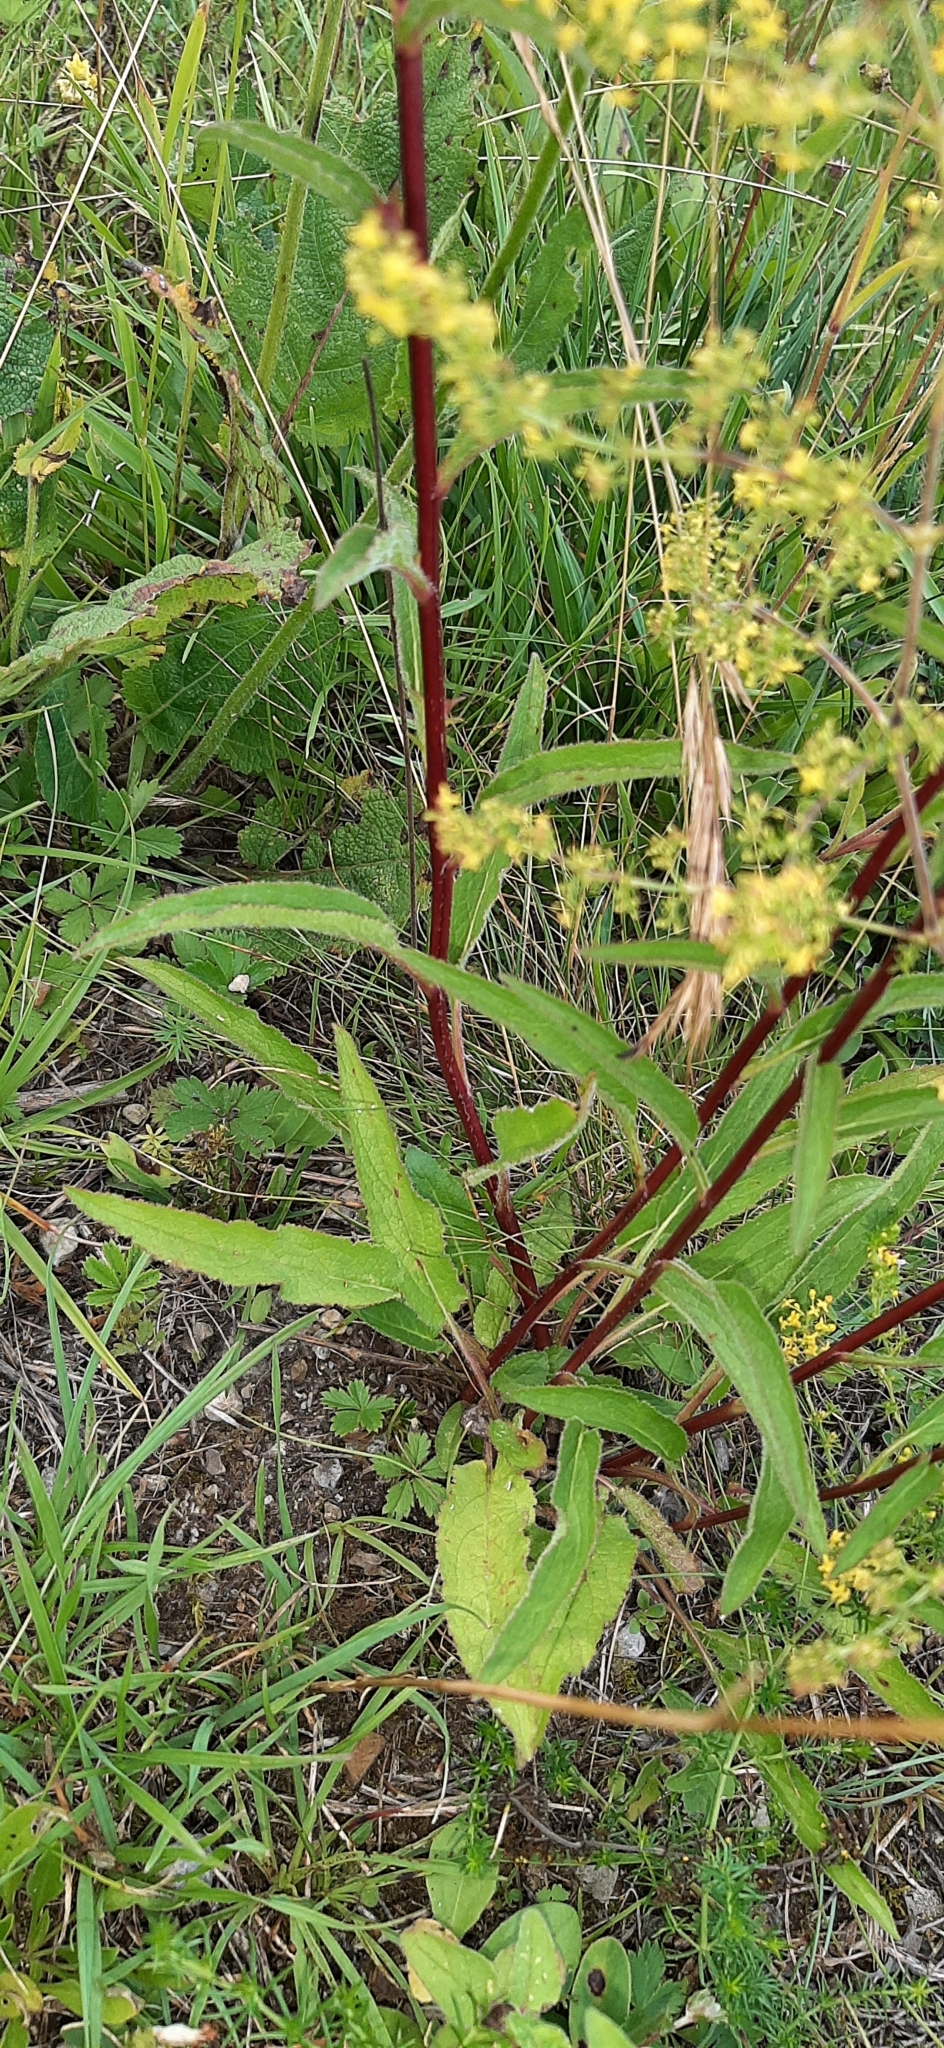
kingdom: Plantae
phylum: Tracheophyta
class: Magnoliopsida
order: Asterales
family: Campanulaceae
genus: Campanula
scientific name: Campanula glomerata
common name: Clustered bellflower
